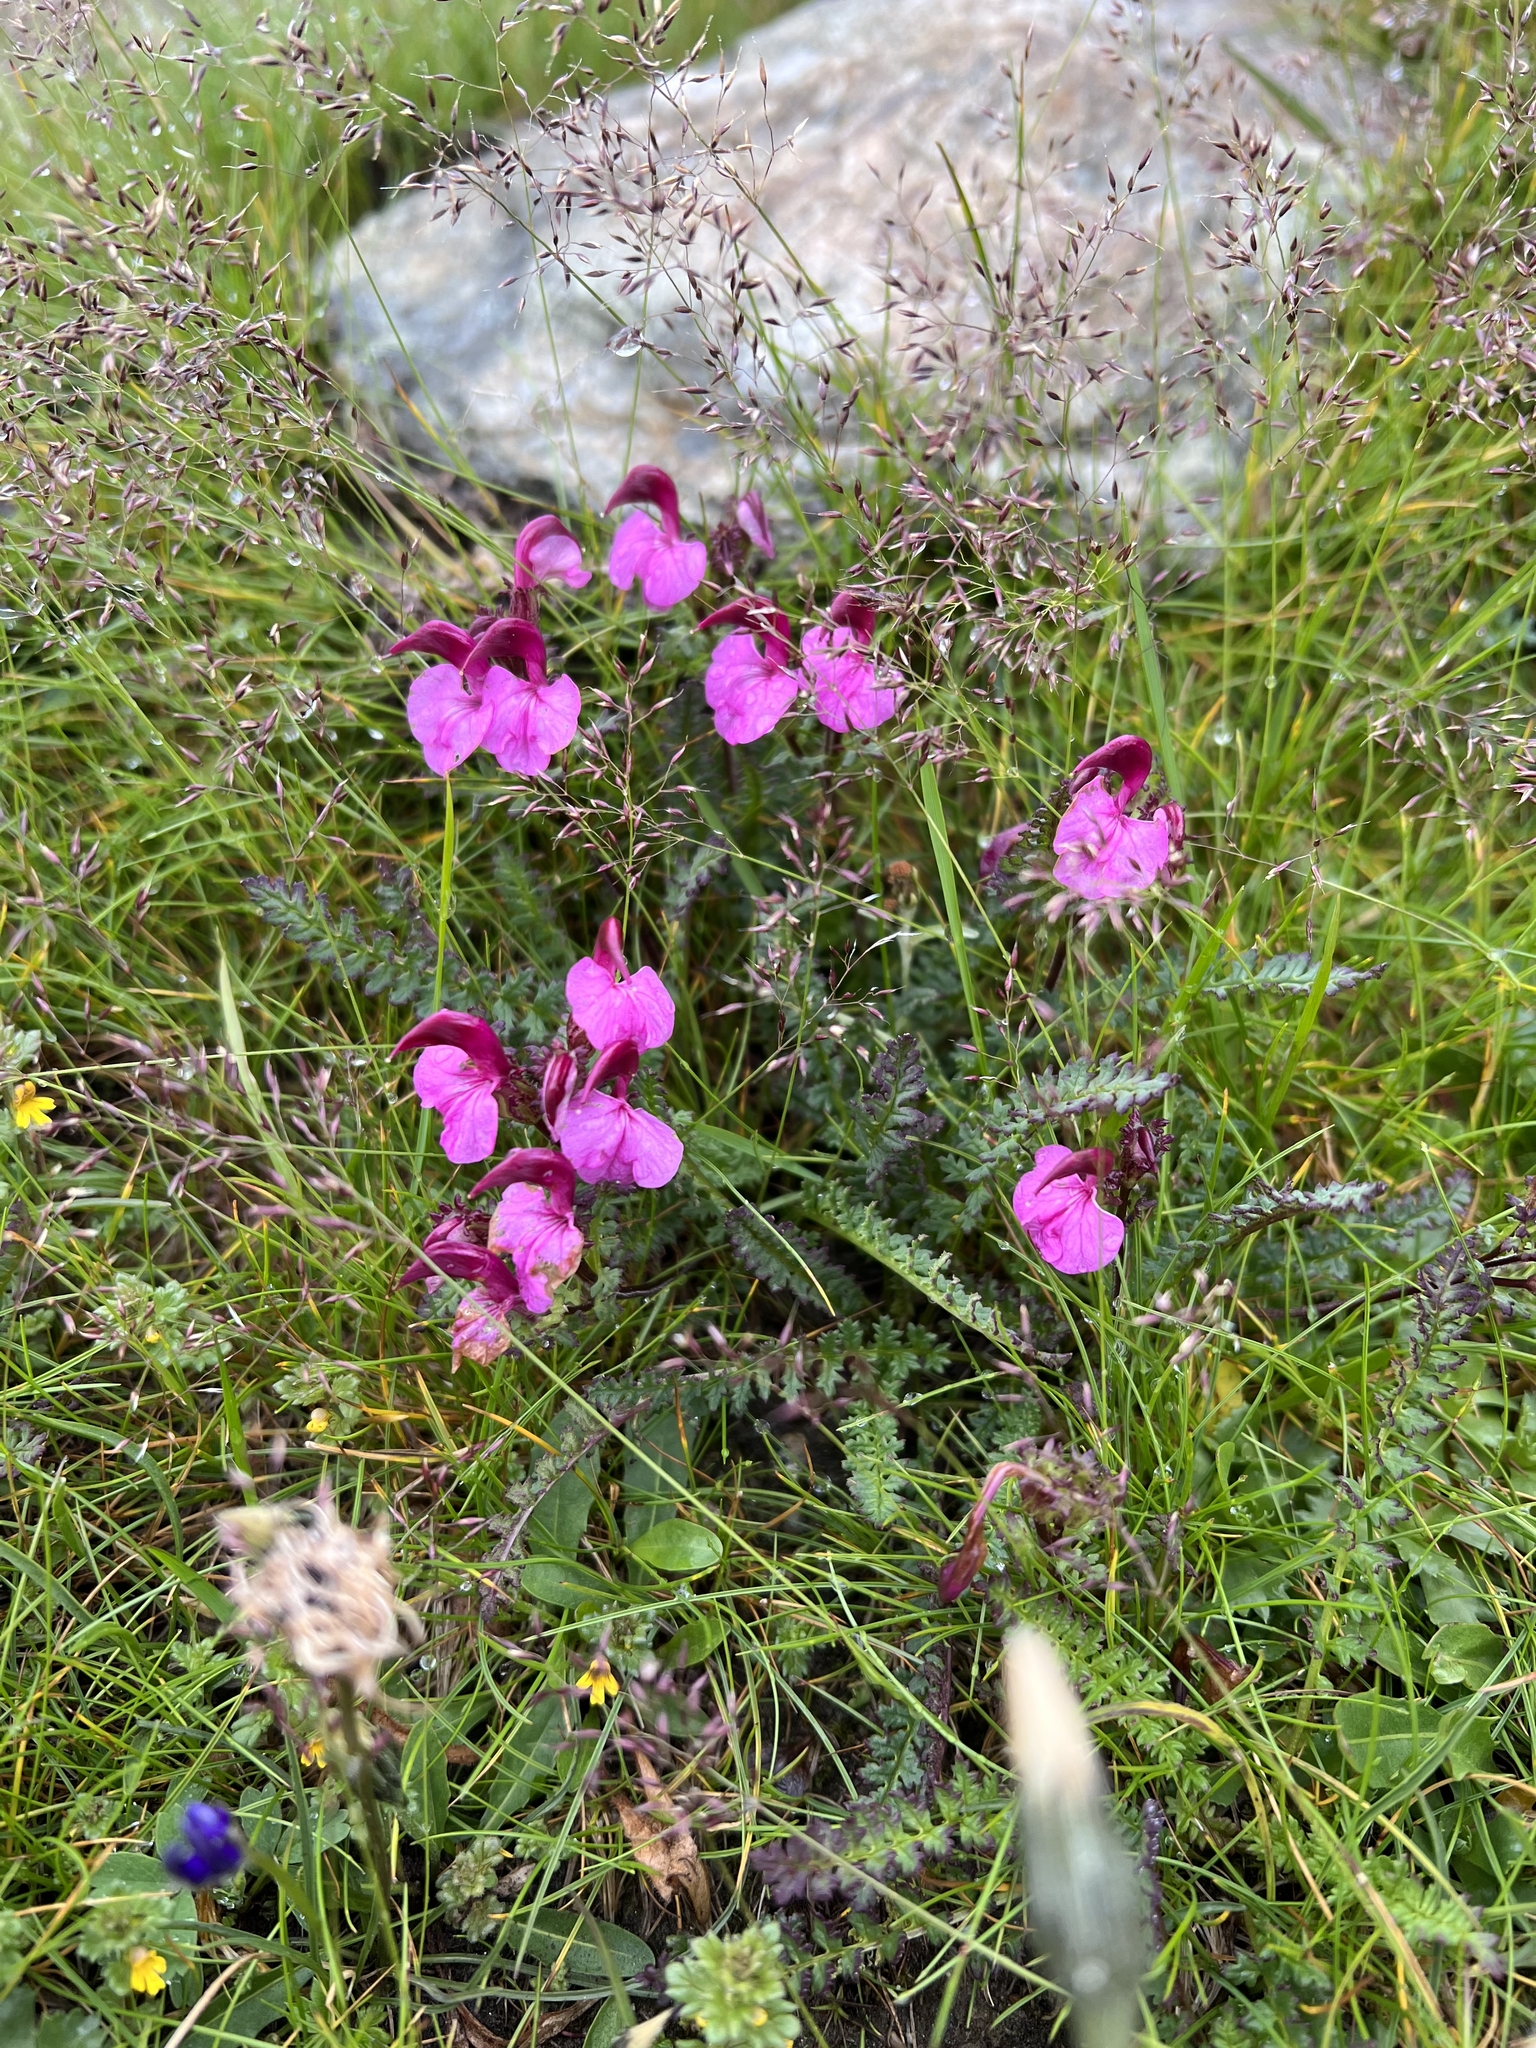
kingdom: Plantae
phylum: Tracheophyta
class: Magnoliopsida
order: Lamiales
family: Orobanchaceae
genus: Pedicularis
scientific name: Pedicularis kerneri
